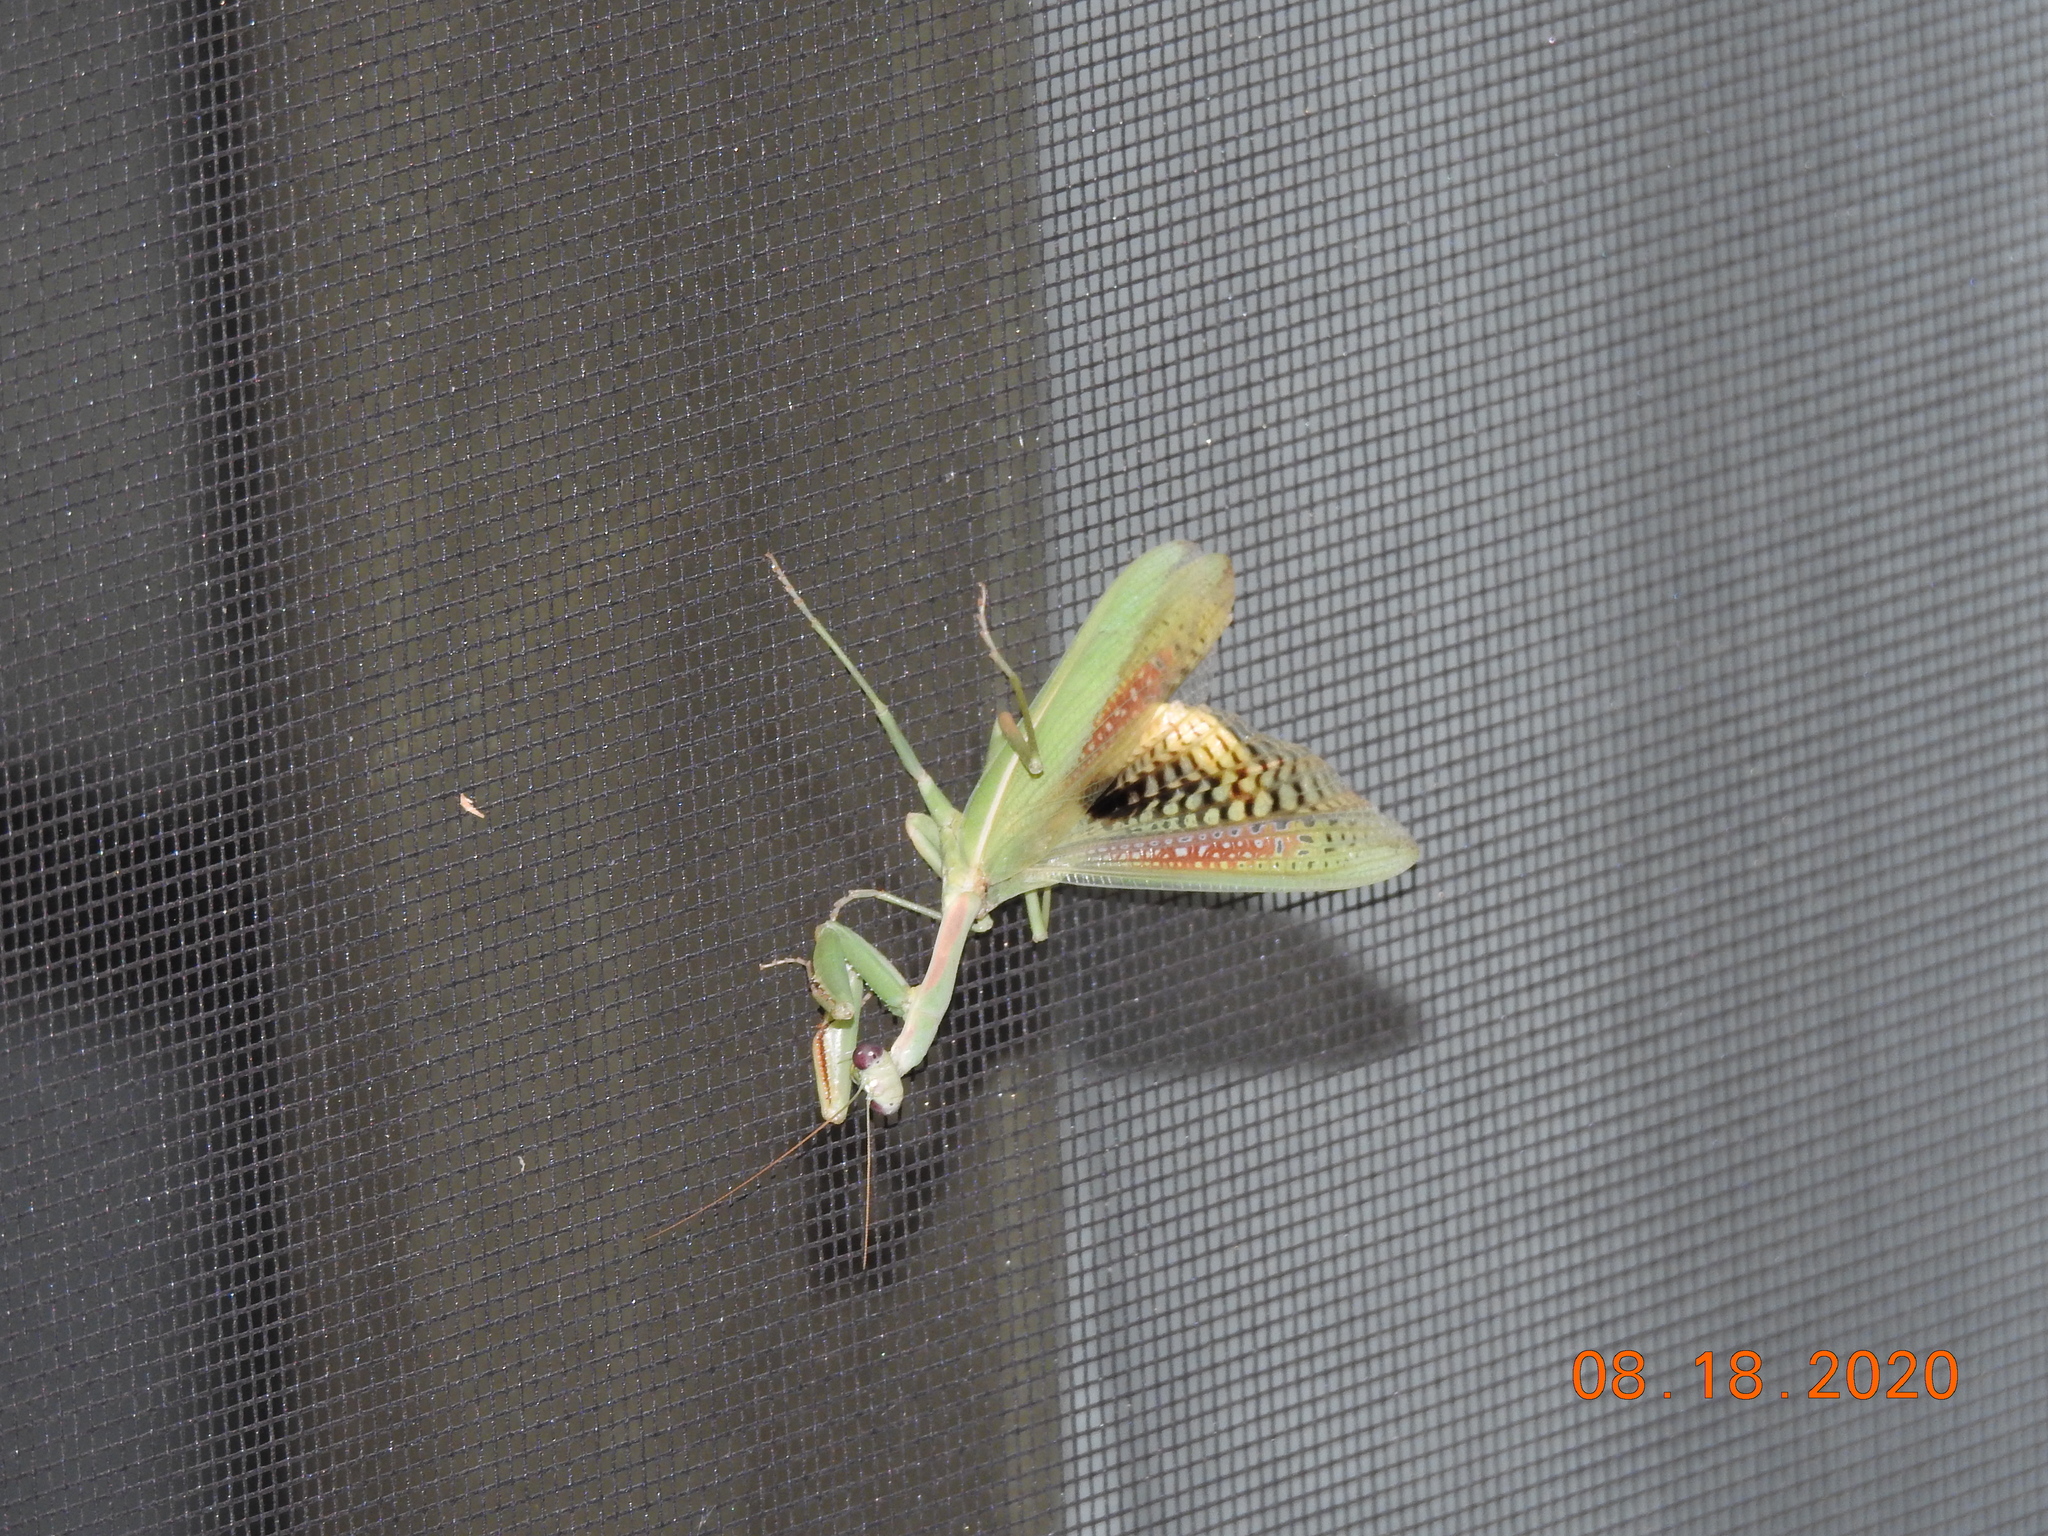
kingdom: Animalia
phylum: Arthropoda
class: Insecta
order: Mantodea
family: Eremiaphilidae
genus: Iris
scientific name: Iris oratoria
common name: Mediterranean mantis
